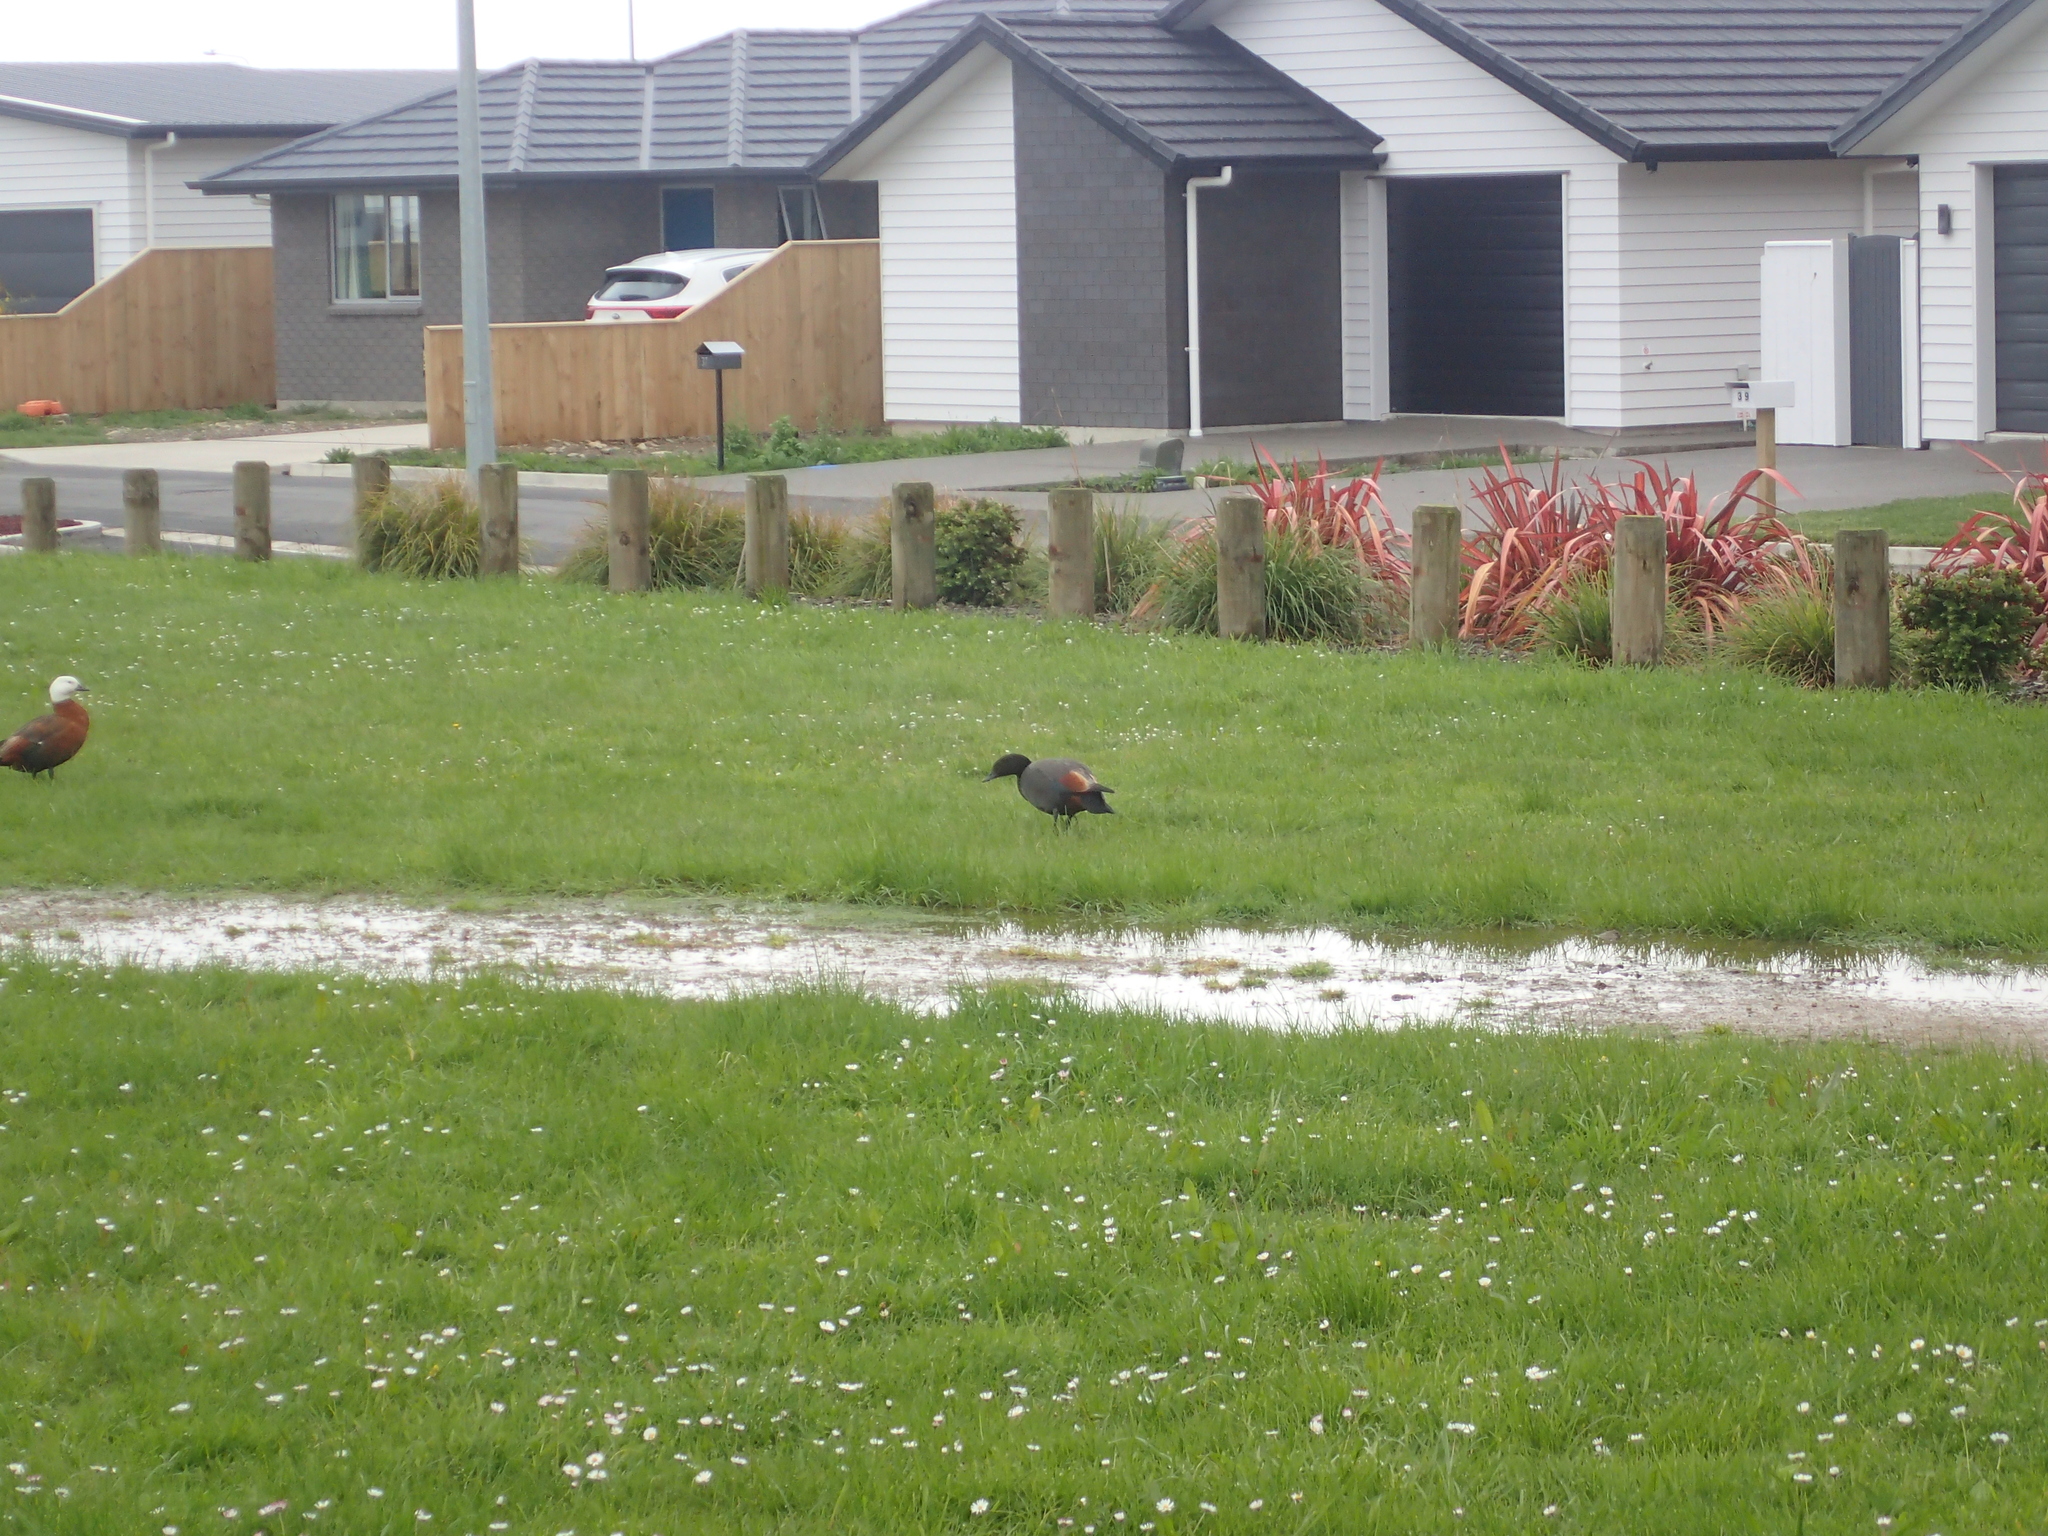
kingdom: Animalia
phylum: Chordata
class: Aves
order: Anseriformes
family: Anatidae
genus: Tadorna
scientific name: Tadorna variegata
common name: Paradise shelduck
